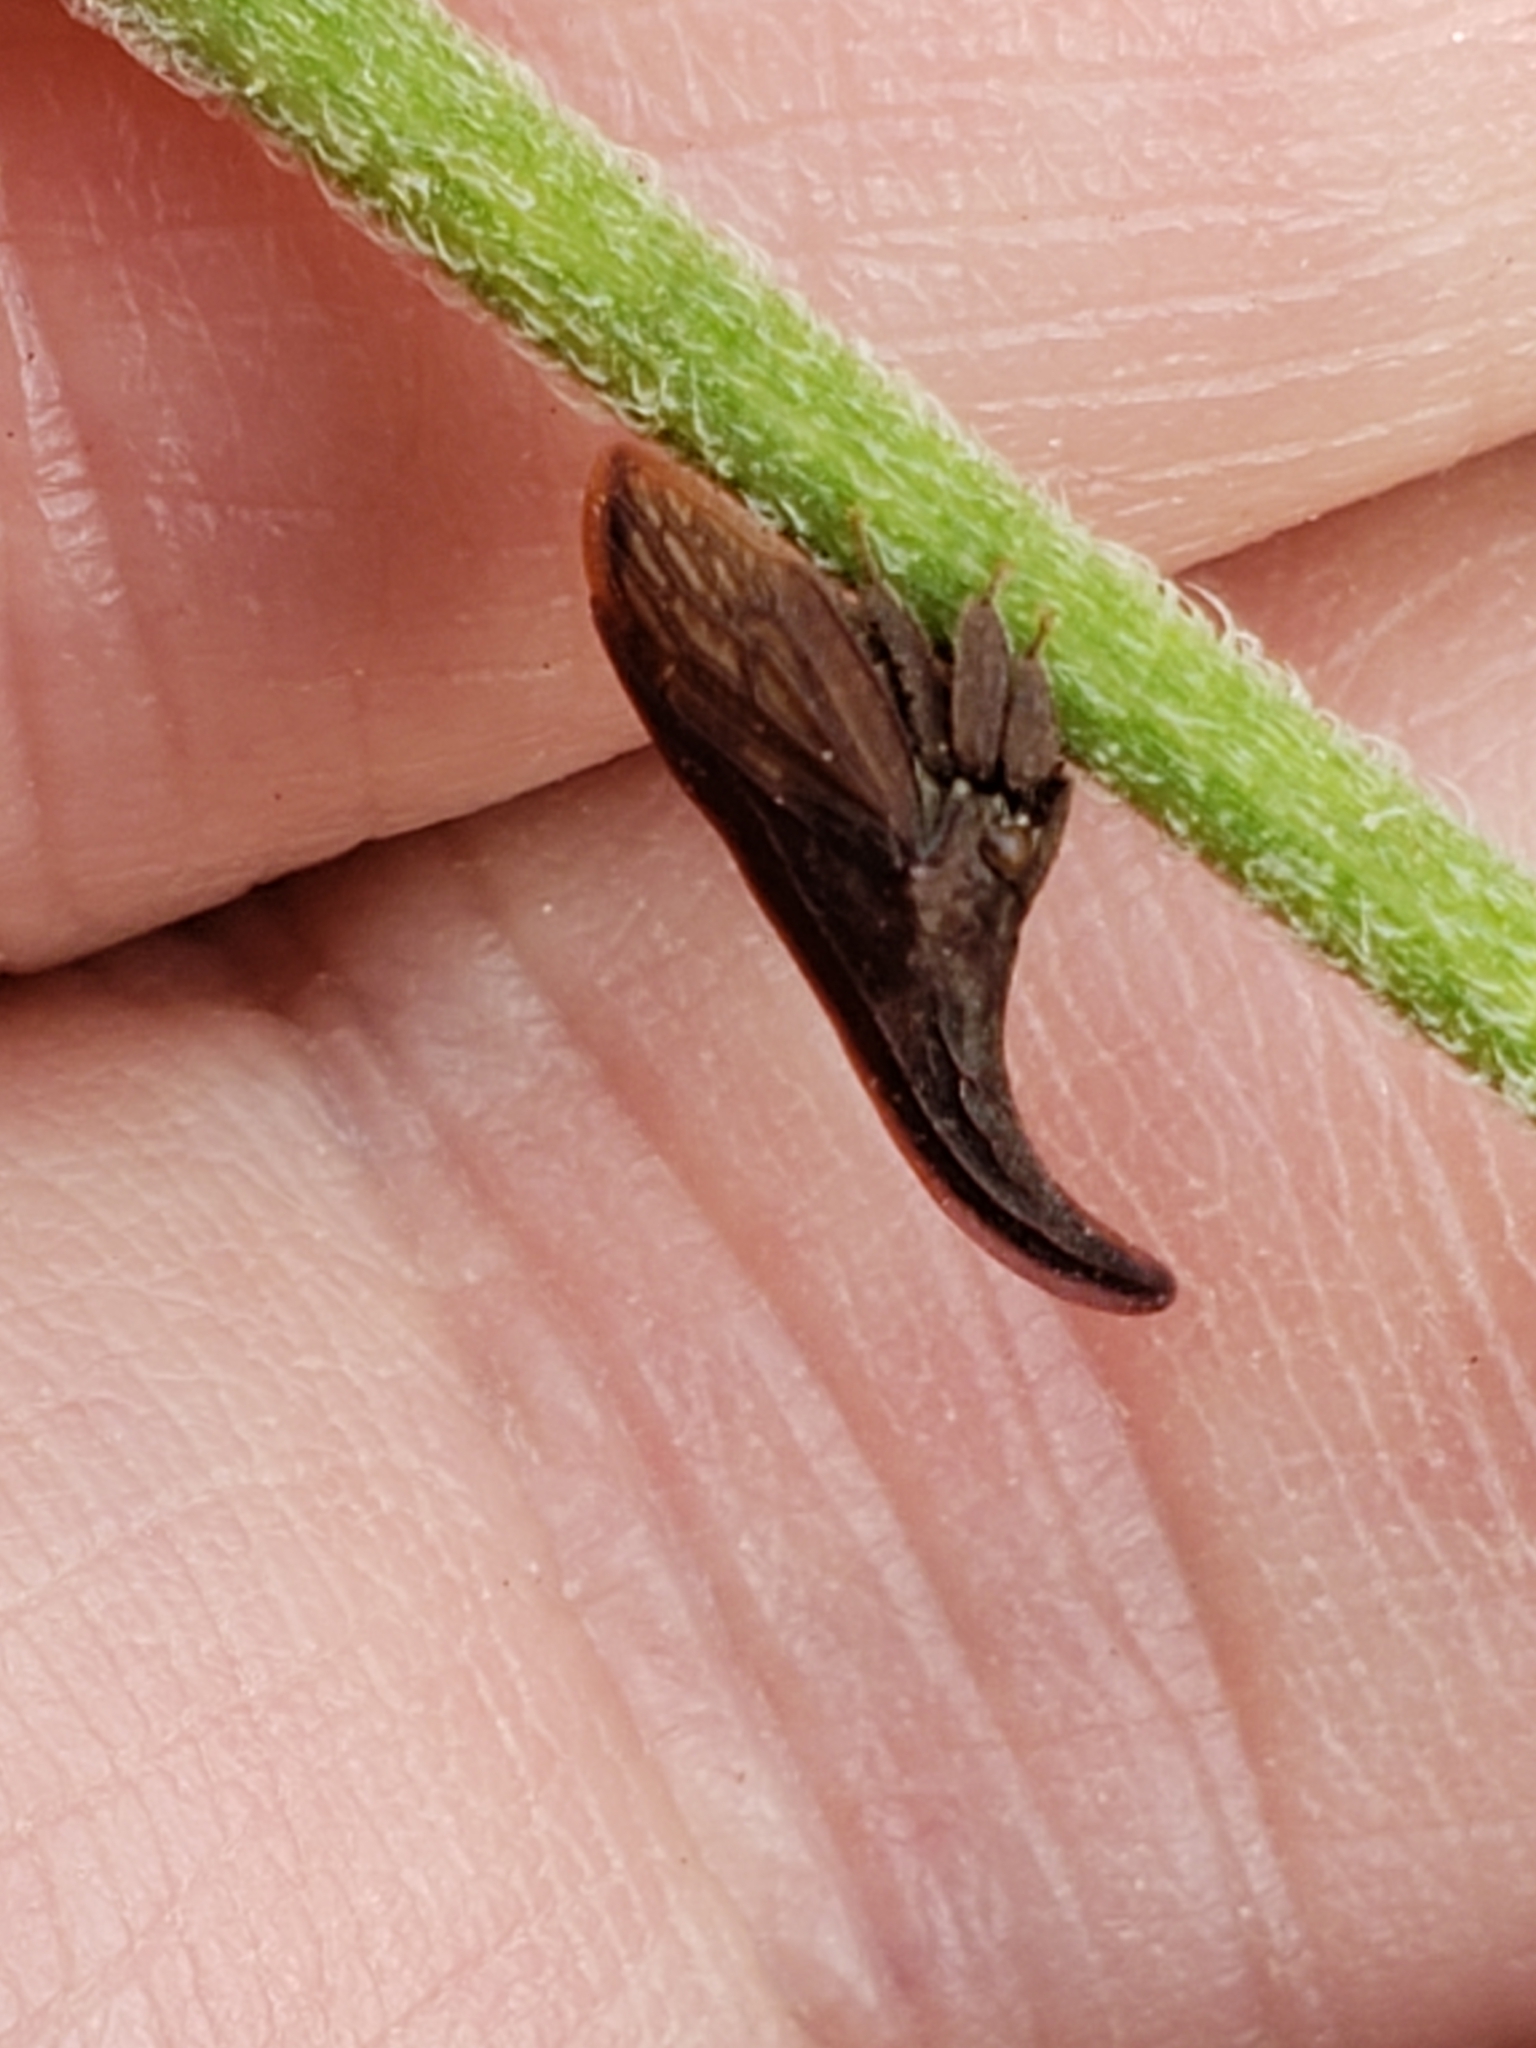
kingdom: Animalia
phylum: Arthropoda
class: Insecta
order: Hemiptera
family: Membracidae
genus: Enchenopa
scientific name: Enchenopa latipes
